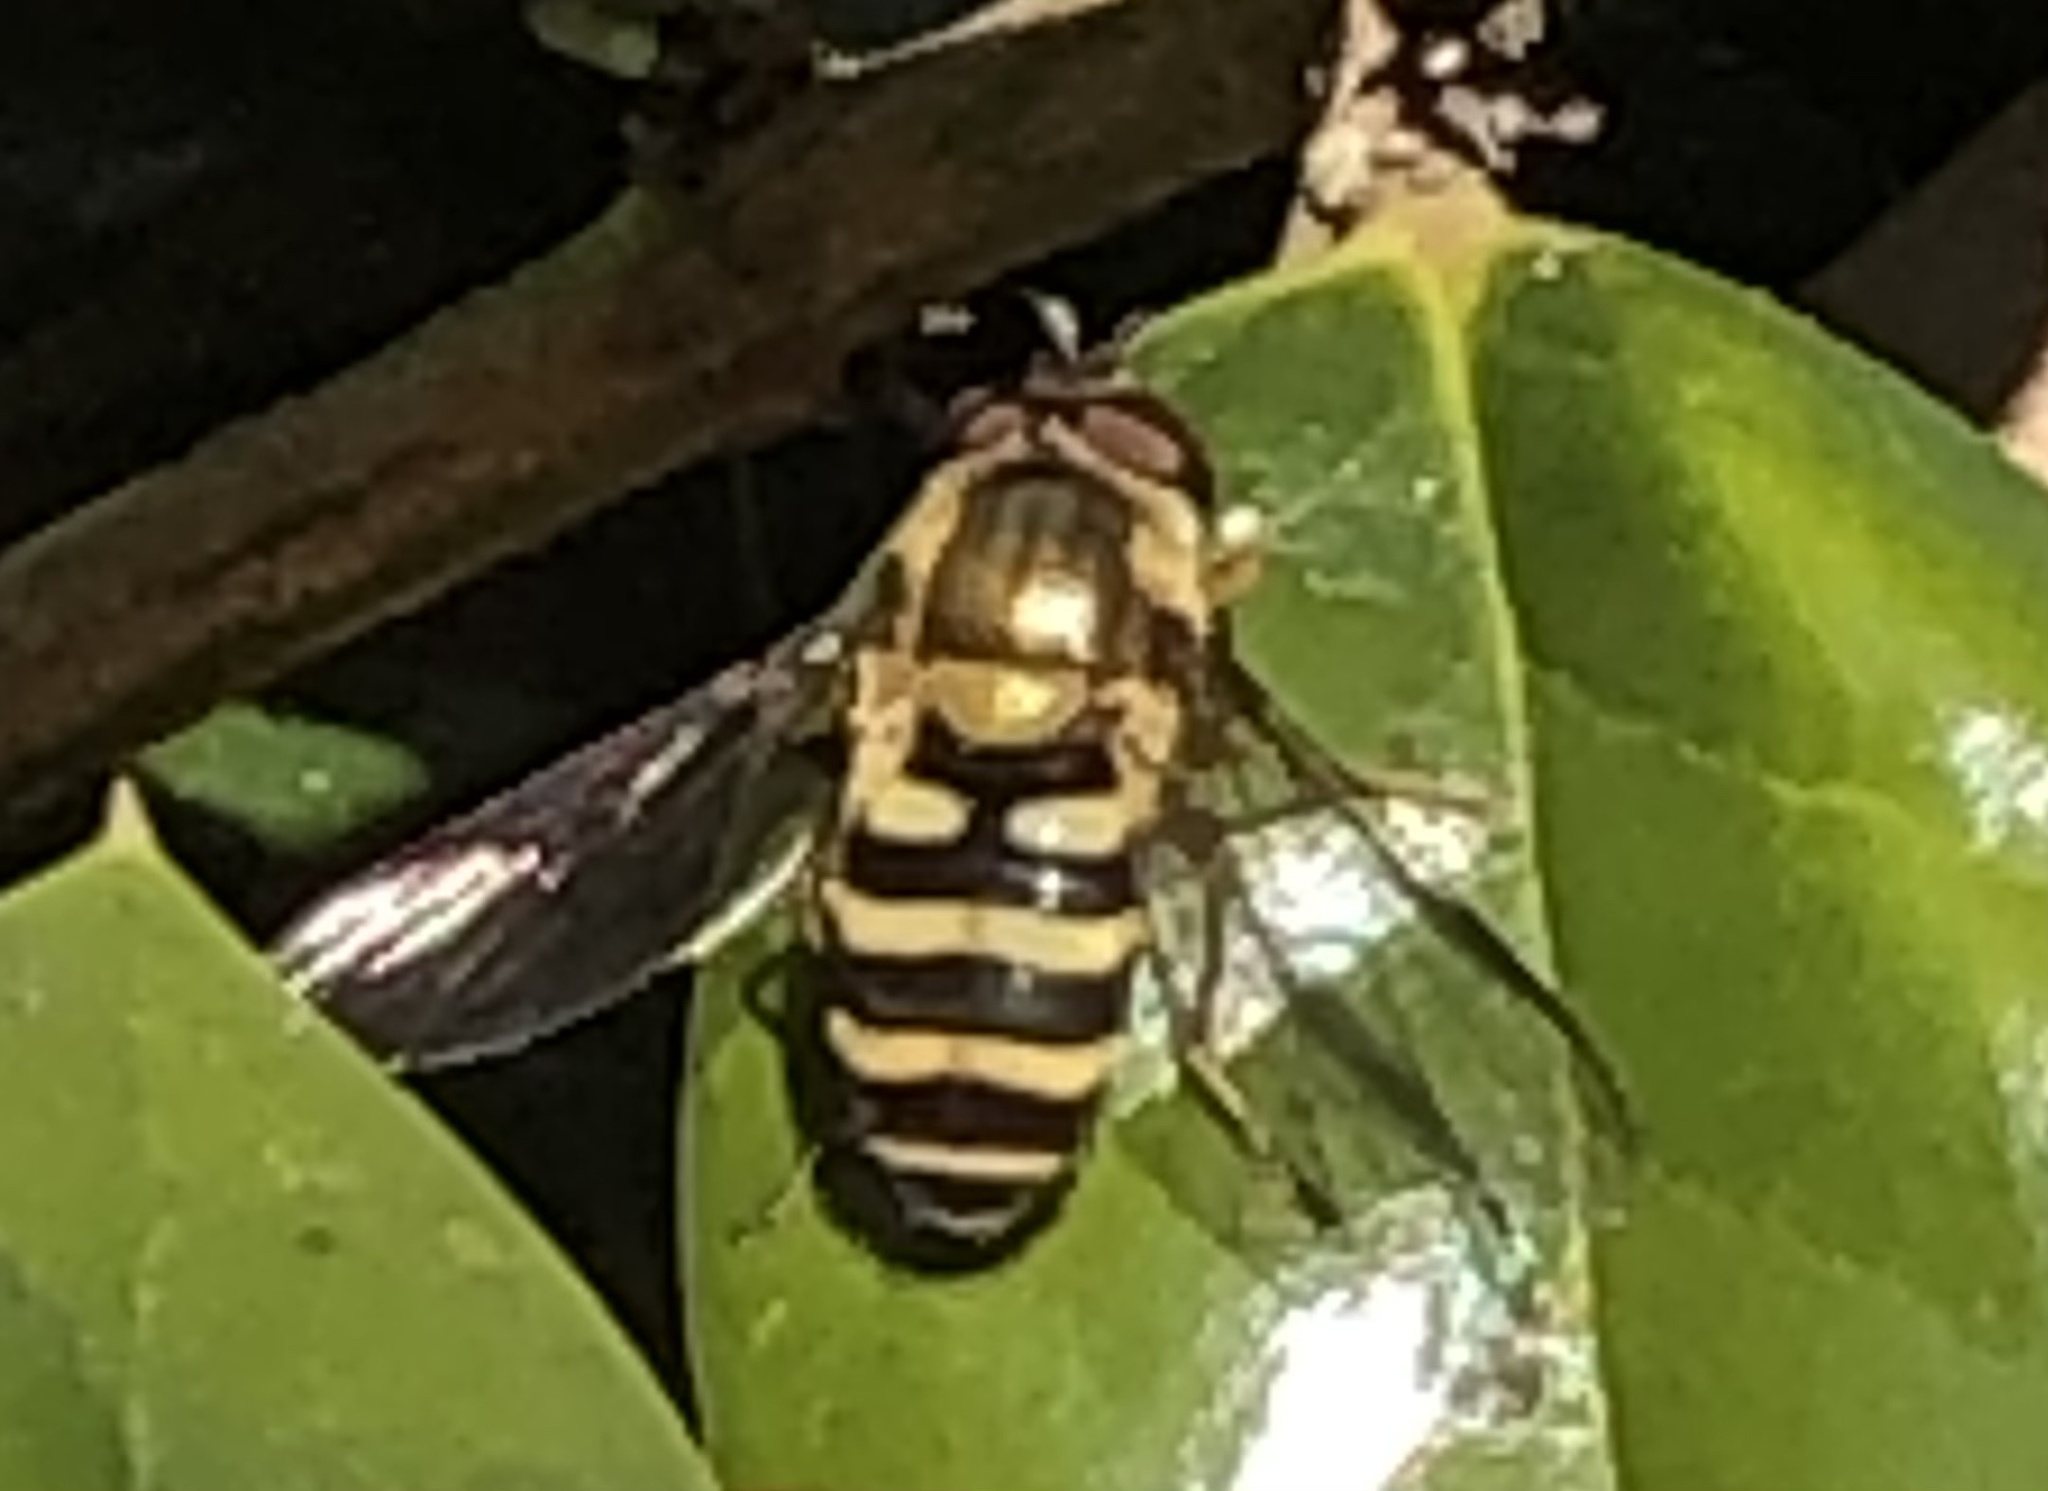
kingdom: Animalia
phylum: Arthropoda
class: Insecta
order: Diptera
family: Syrphidae
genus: Syrphus
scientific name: Syrphus
